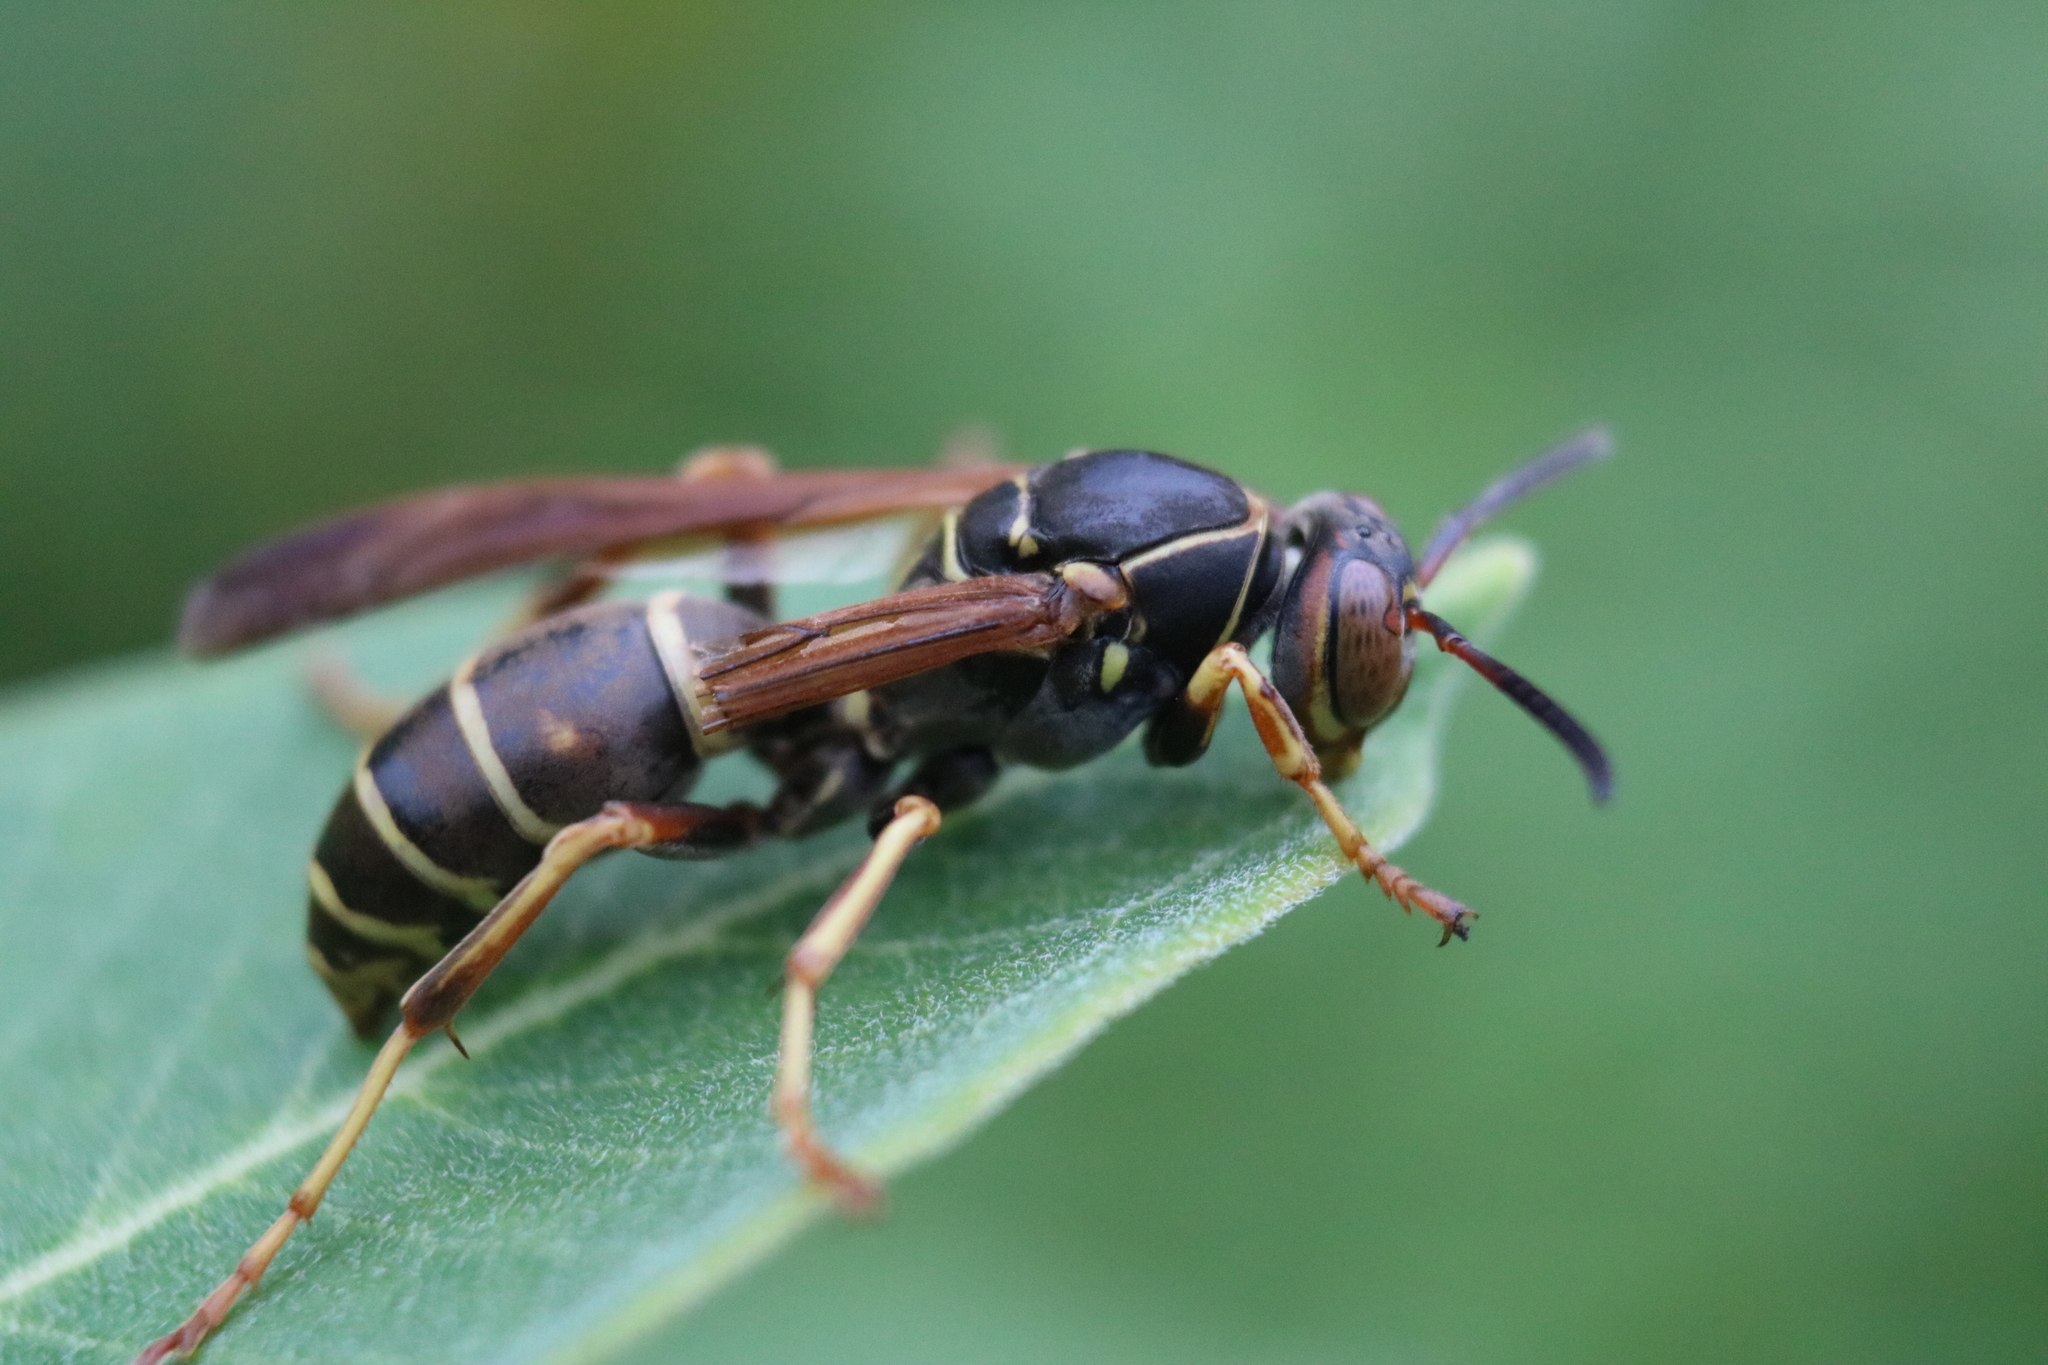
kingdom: Animalia
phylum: Arthropoda
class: Insecta
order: Hymenoptera
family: Eumenidae
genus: Polistes
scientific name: Polistes fuscatus
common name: Dark paper wasp
